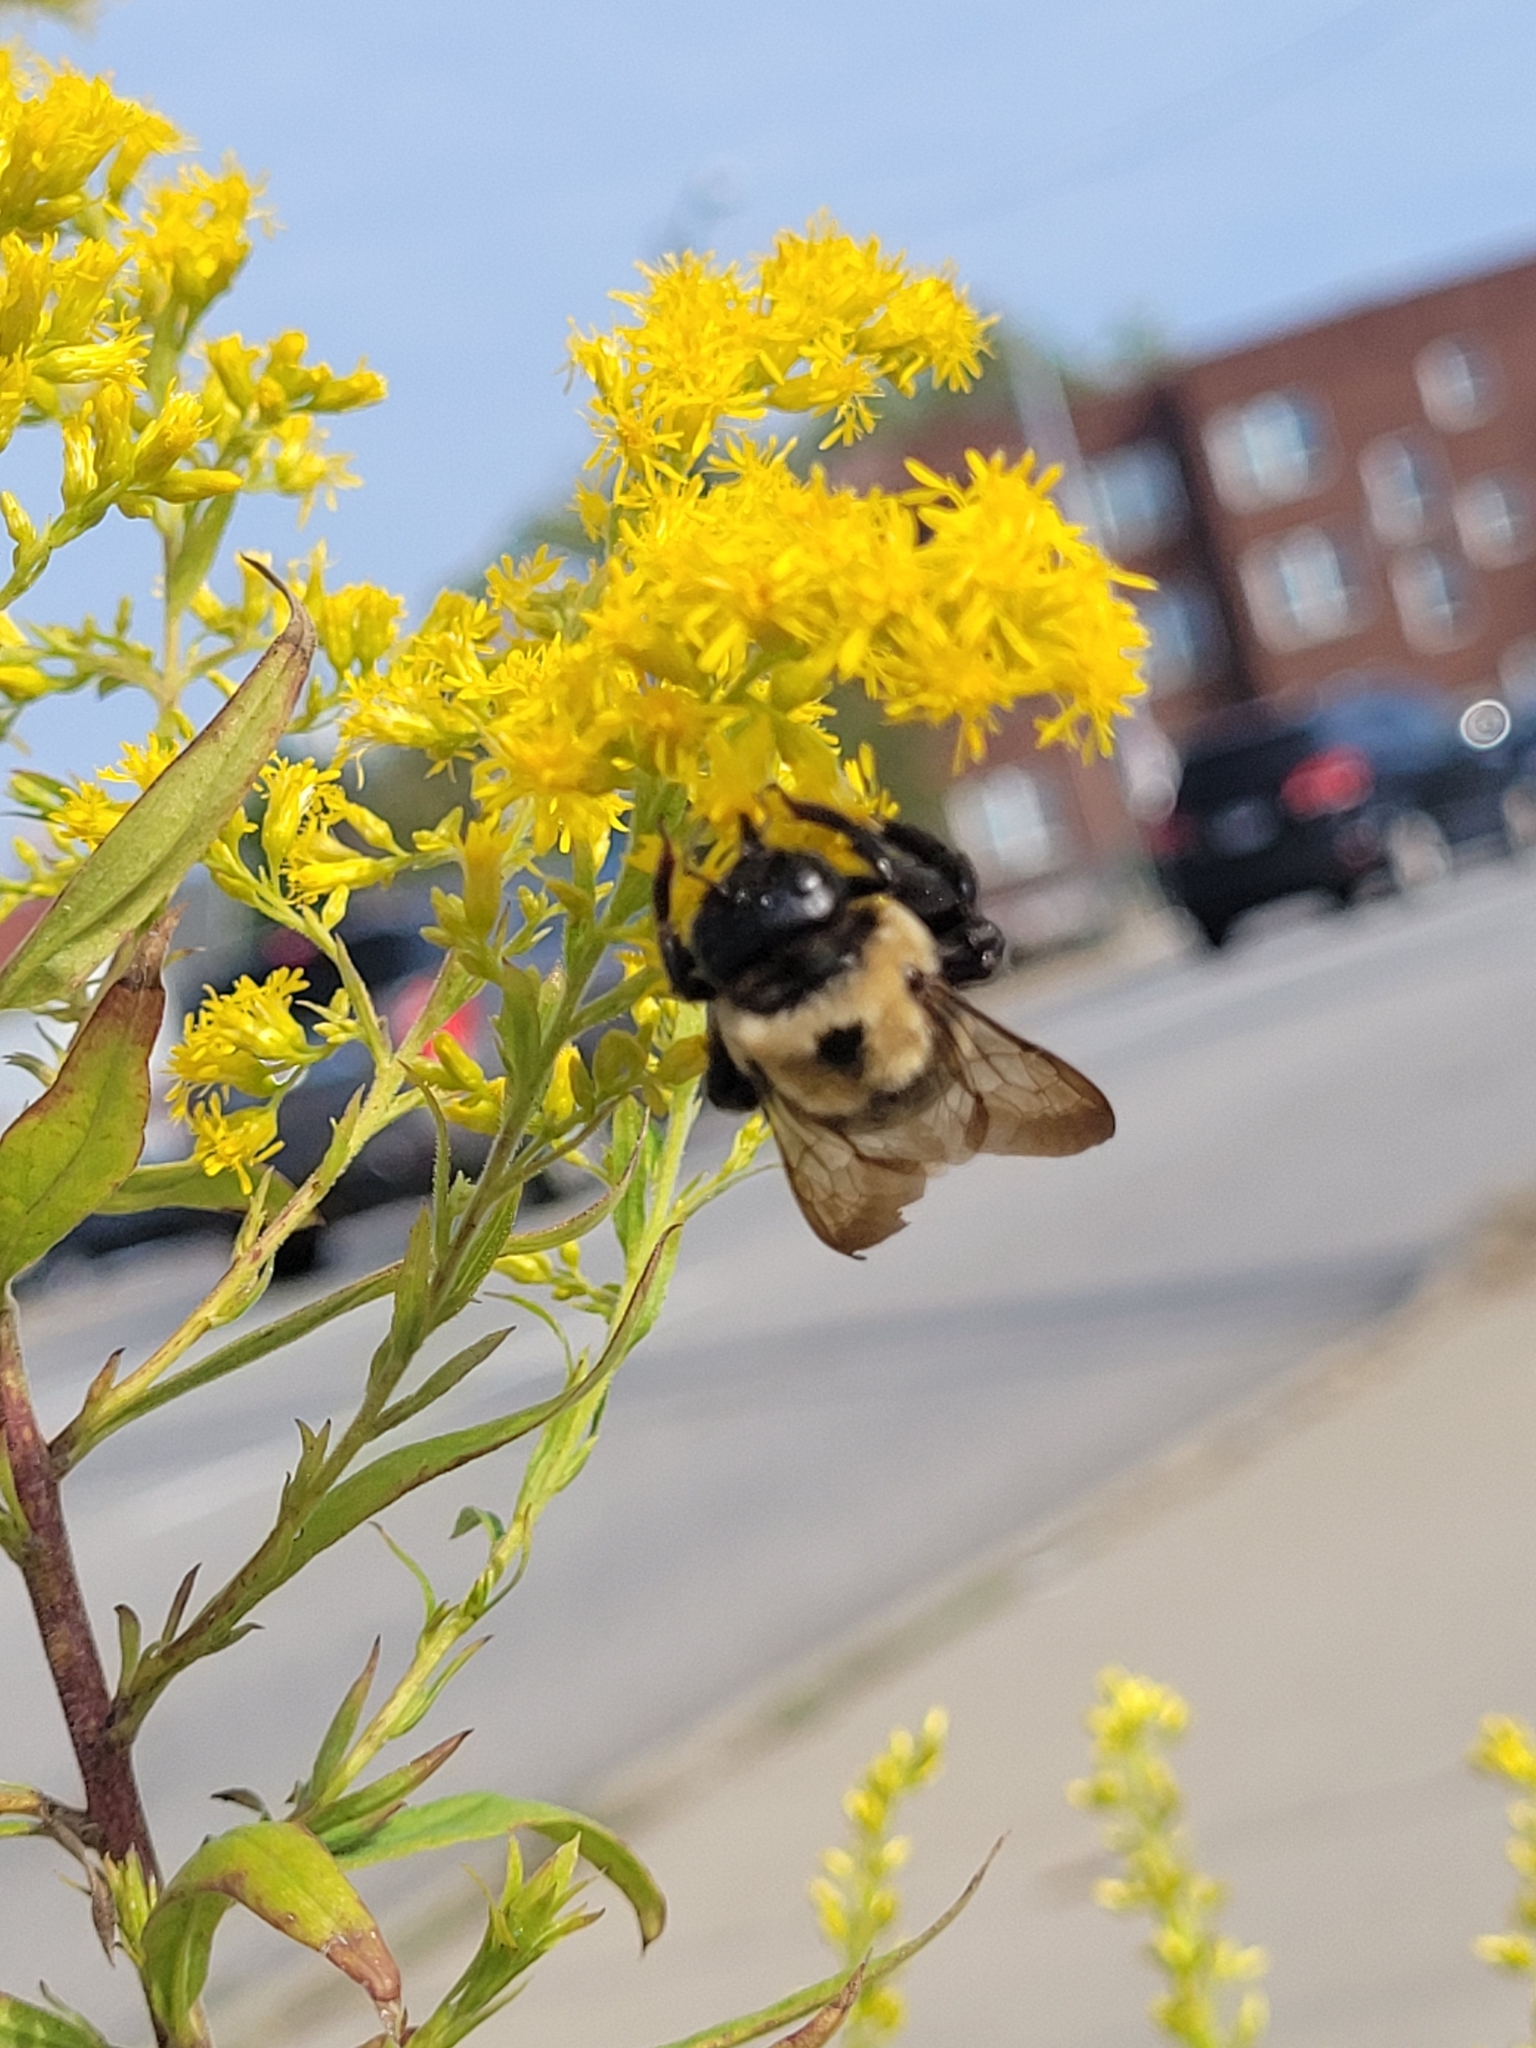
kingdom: Animalia
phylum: Arthropoda
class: Insecta
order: Hymenoptera
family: Apidae
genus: Xylocopa
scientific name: Xylocopa virginica
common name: Carpenter bee
